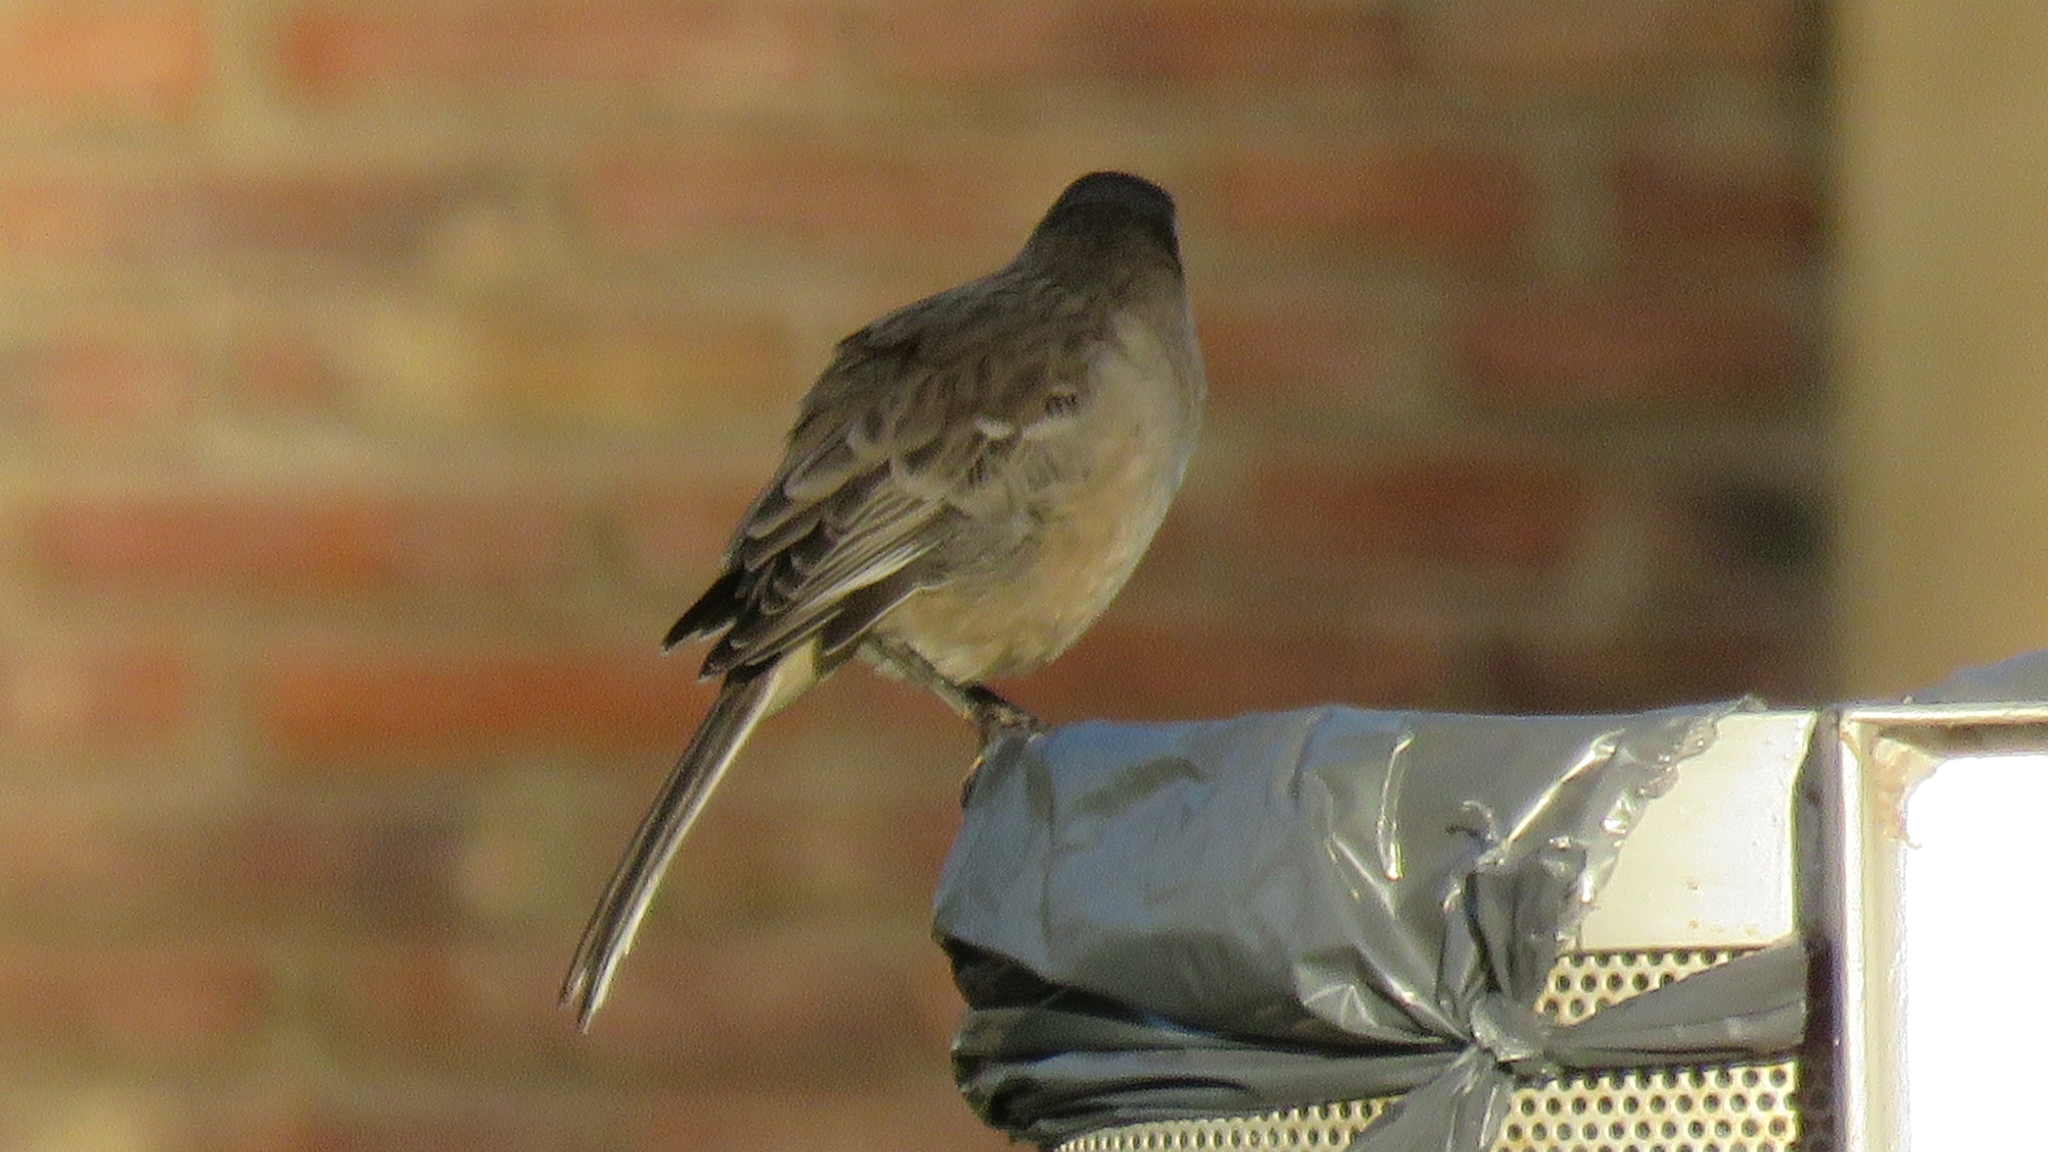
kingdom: Animalia
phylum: Chordata
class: Aves
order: Passeriformes
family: Mimidae
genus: Mimus
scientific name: Mimus saturninus
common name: Chalk-browed mockingbird
